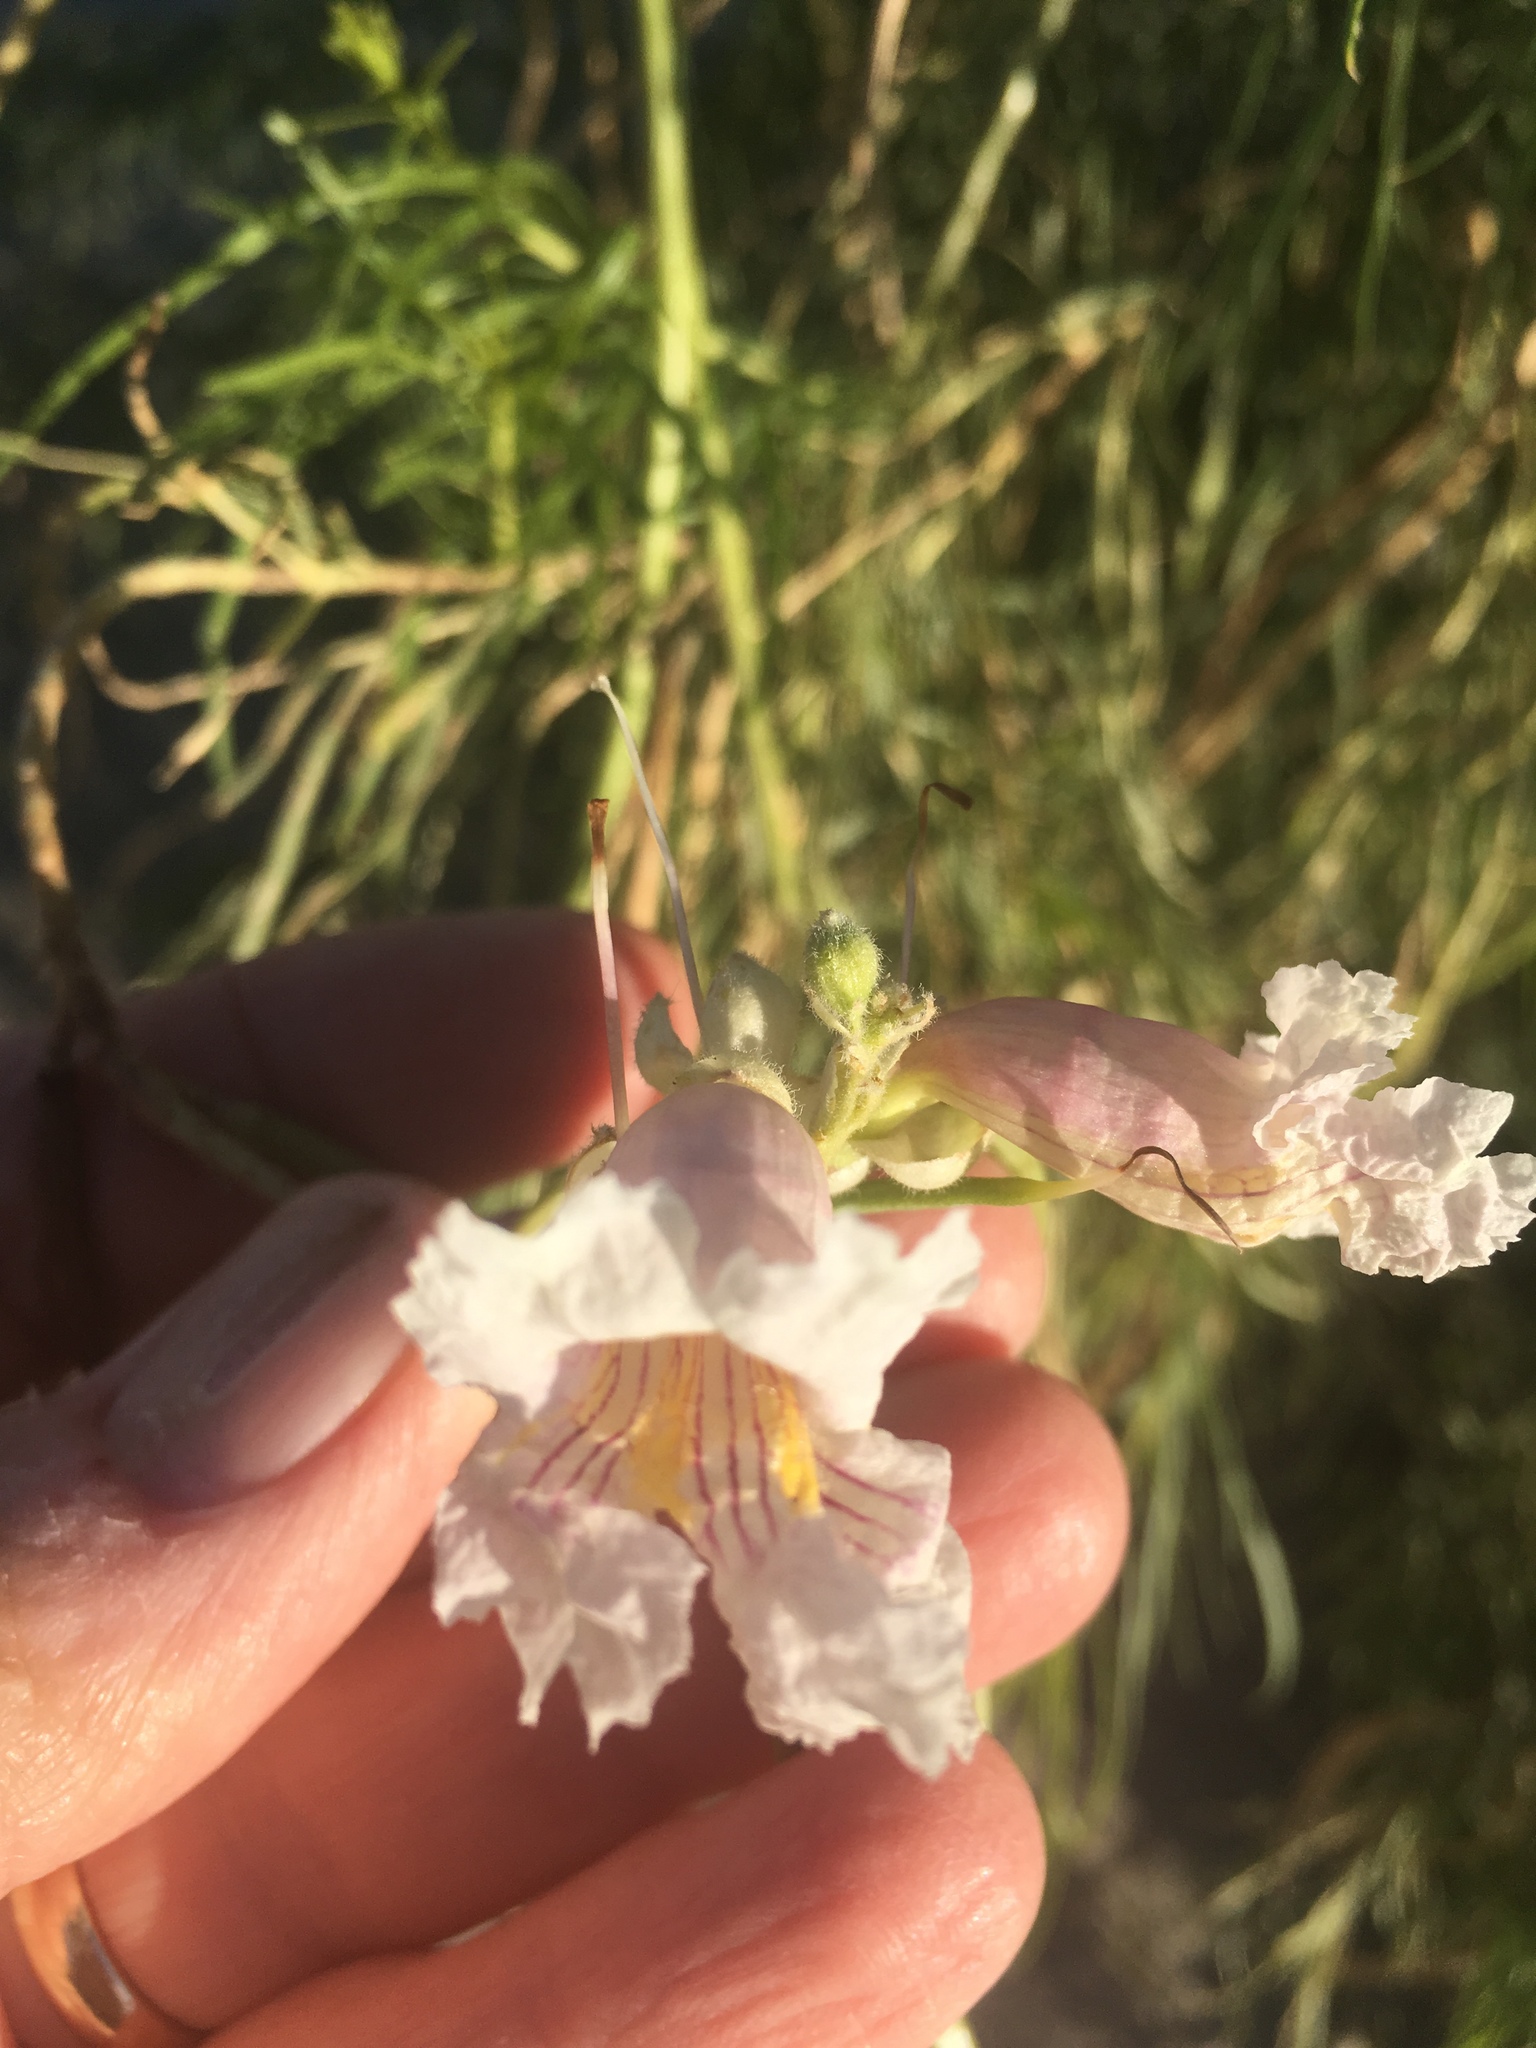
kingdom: Plantae
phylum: Tracheophyta
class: Magnoliopsida
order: Lamiales
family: Bignoniaceae
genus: Chilopsis
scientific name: Chilopsis linearis
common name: Desert-willow
